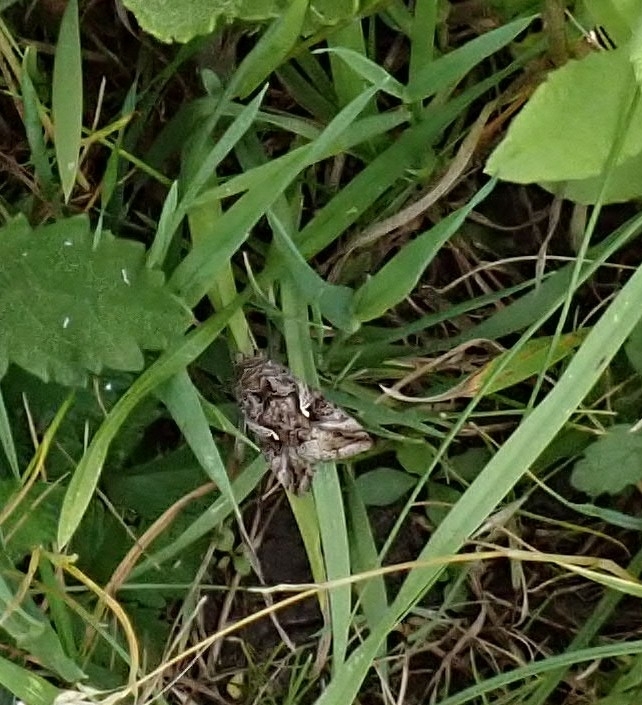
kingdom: Animalia
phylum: Arthropoda
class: Insecta
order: Lepidoptera
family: Noctuidae
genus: Autographa
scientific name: Autographa gamma
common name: Silver y
